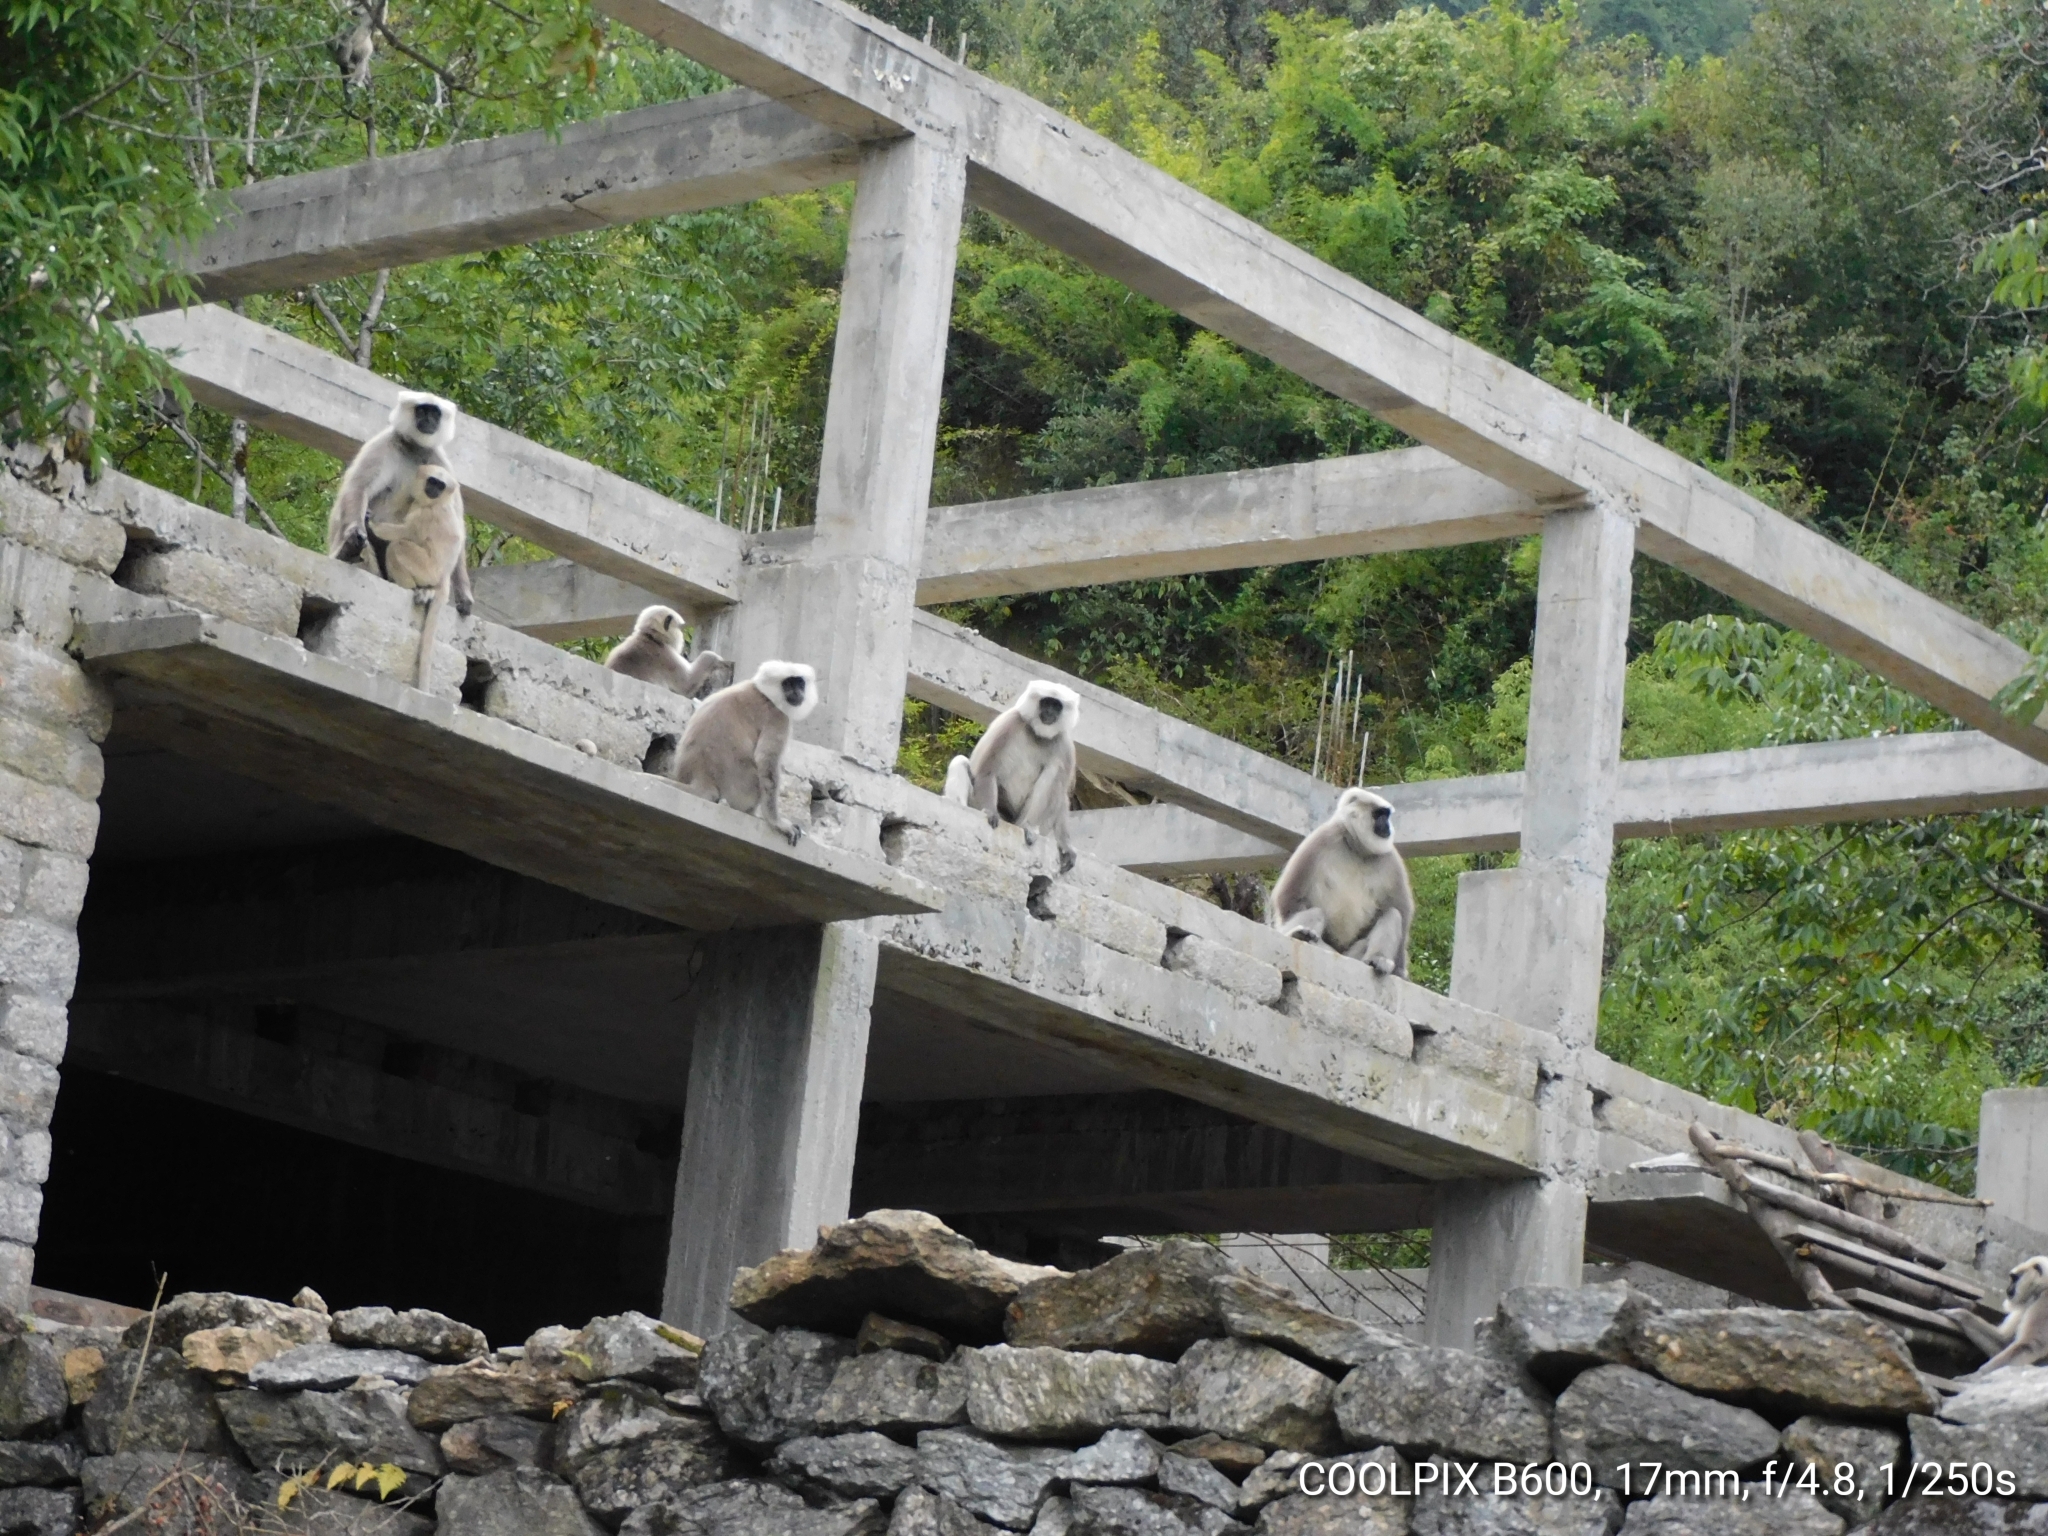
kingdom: Animalia
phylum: Chordata
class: Mammalia
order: Primates
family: Cercopithecidae
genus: Semnopithecus
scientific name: Semnopithecus schistaceus
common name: Nepal gray langur
